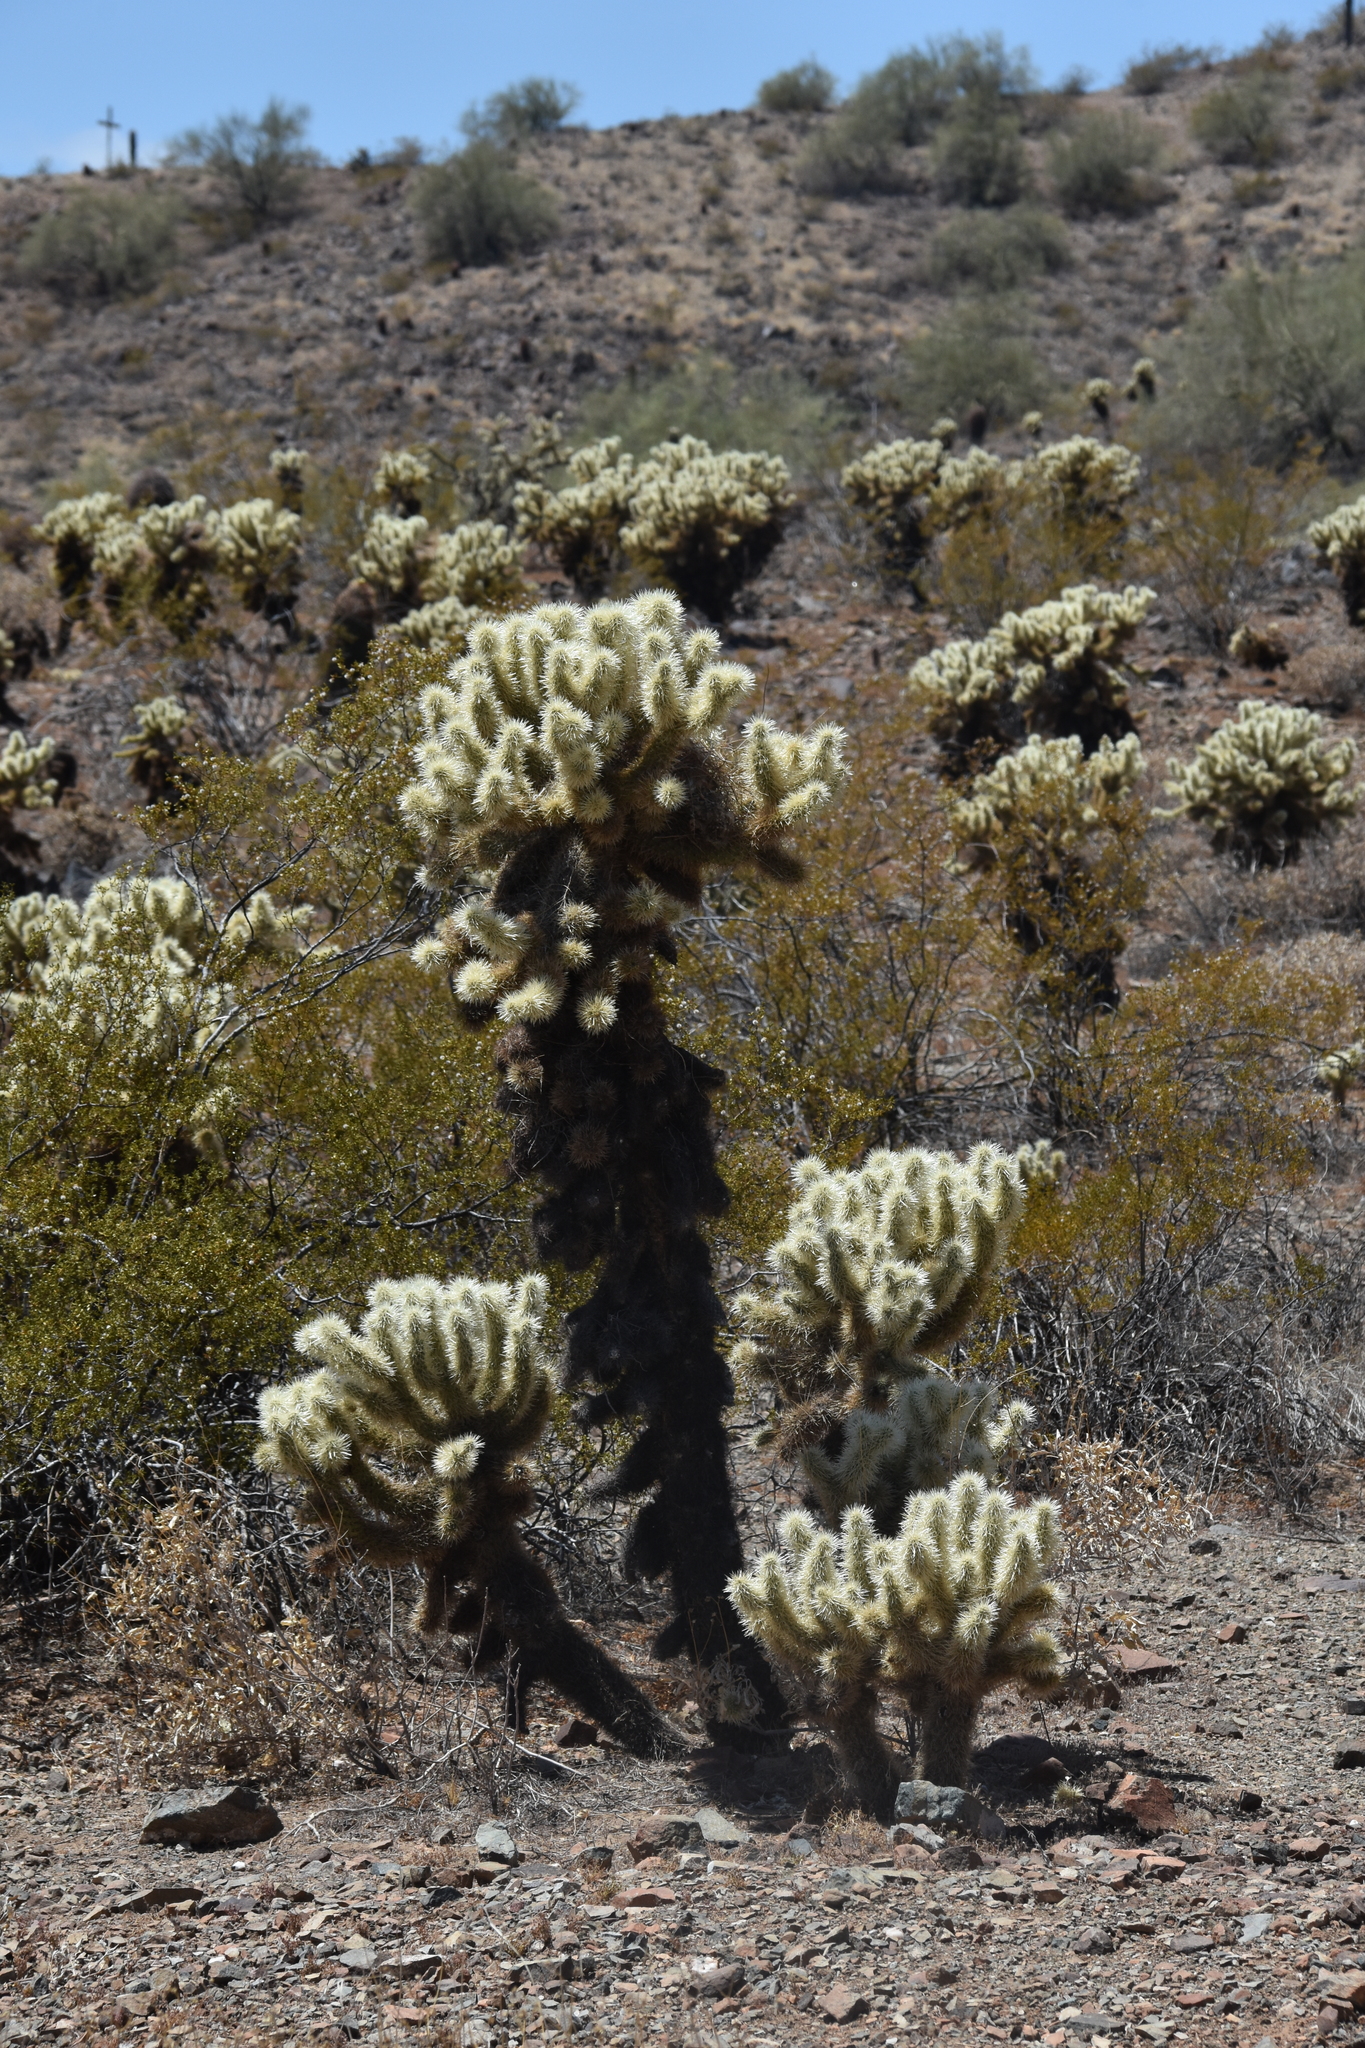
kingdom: Plantae
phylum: Tracheophyta
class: Magnoliopsida
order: Caryophyllales
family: Cactaceae
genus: Cylindropuntia
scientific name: Cylindropuntia fosbergii
